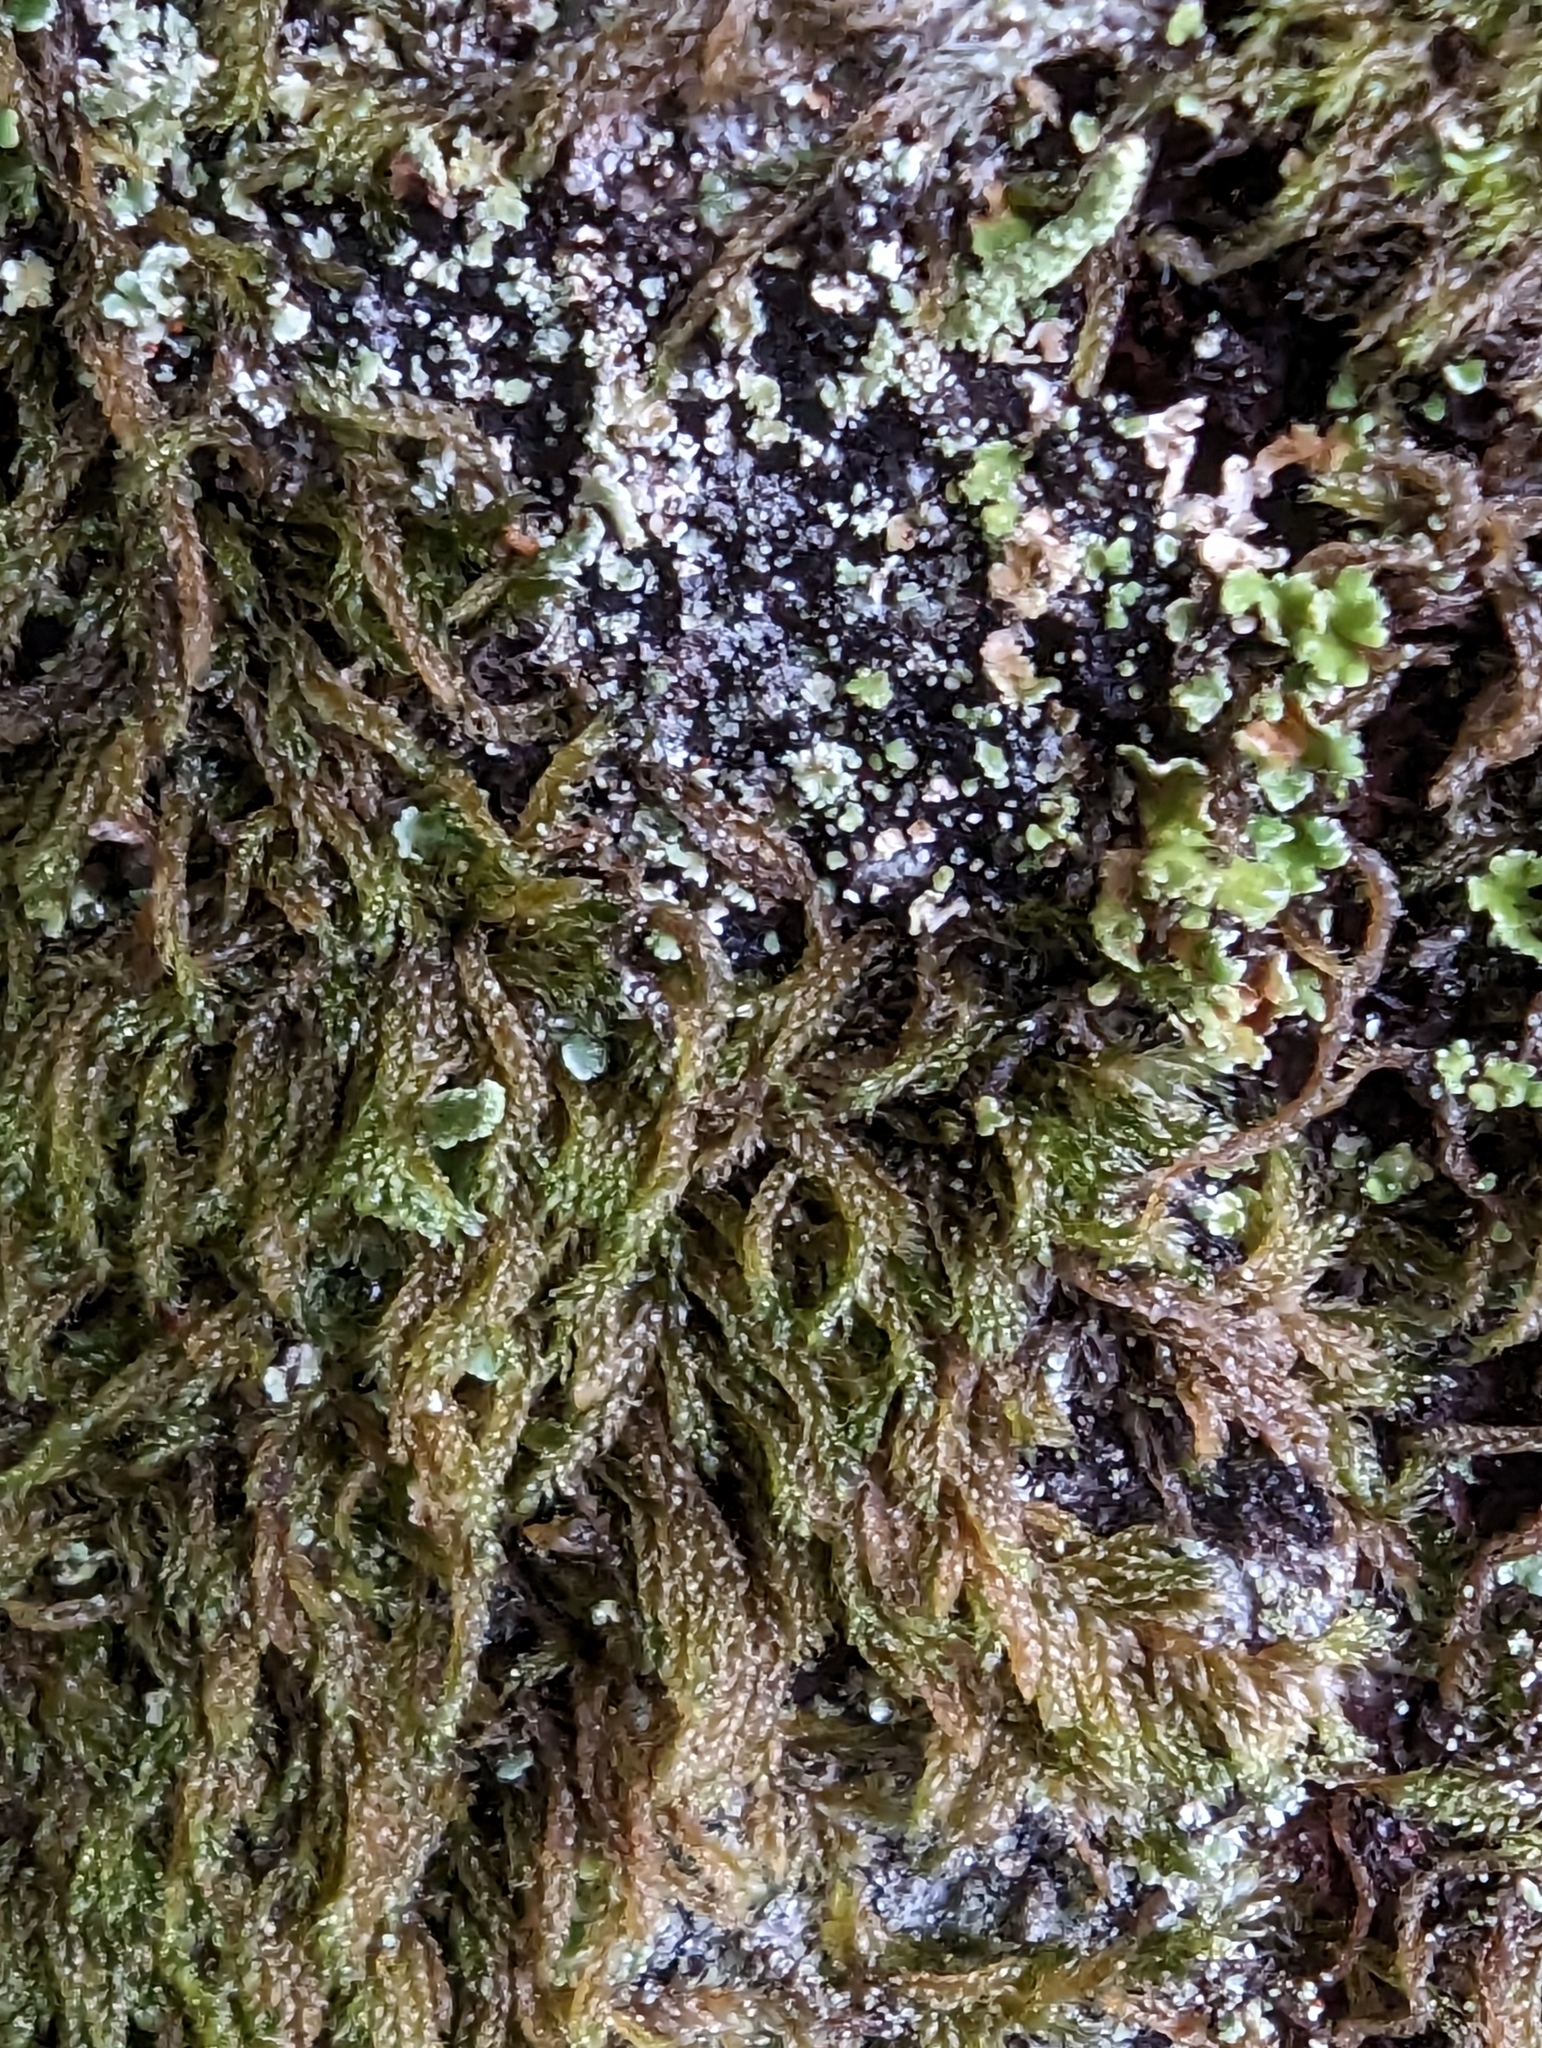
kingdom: Plantae
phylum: Bryophyta
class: Bryopsida
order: Hypnales
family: Pylaisiadelphaceae
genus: Trochophyllohypnum
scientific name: Trochophyllohypnum circinale
